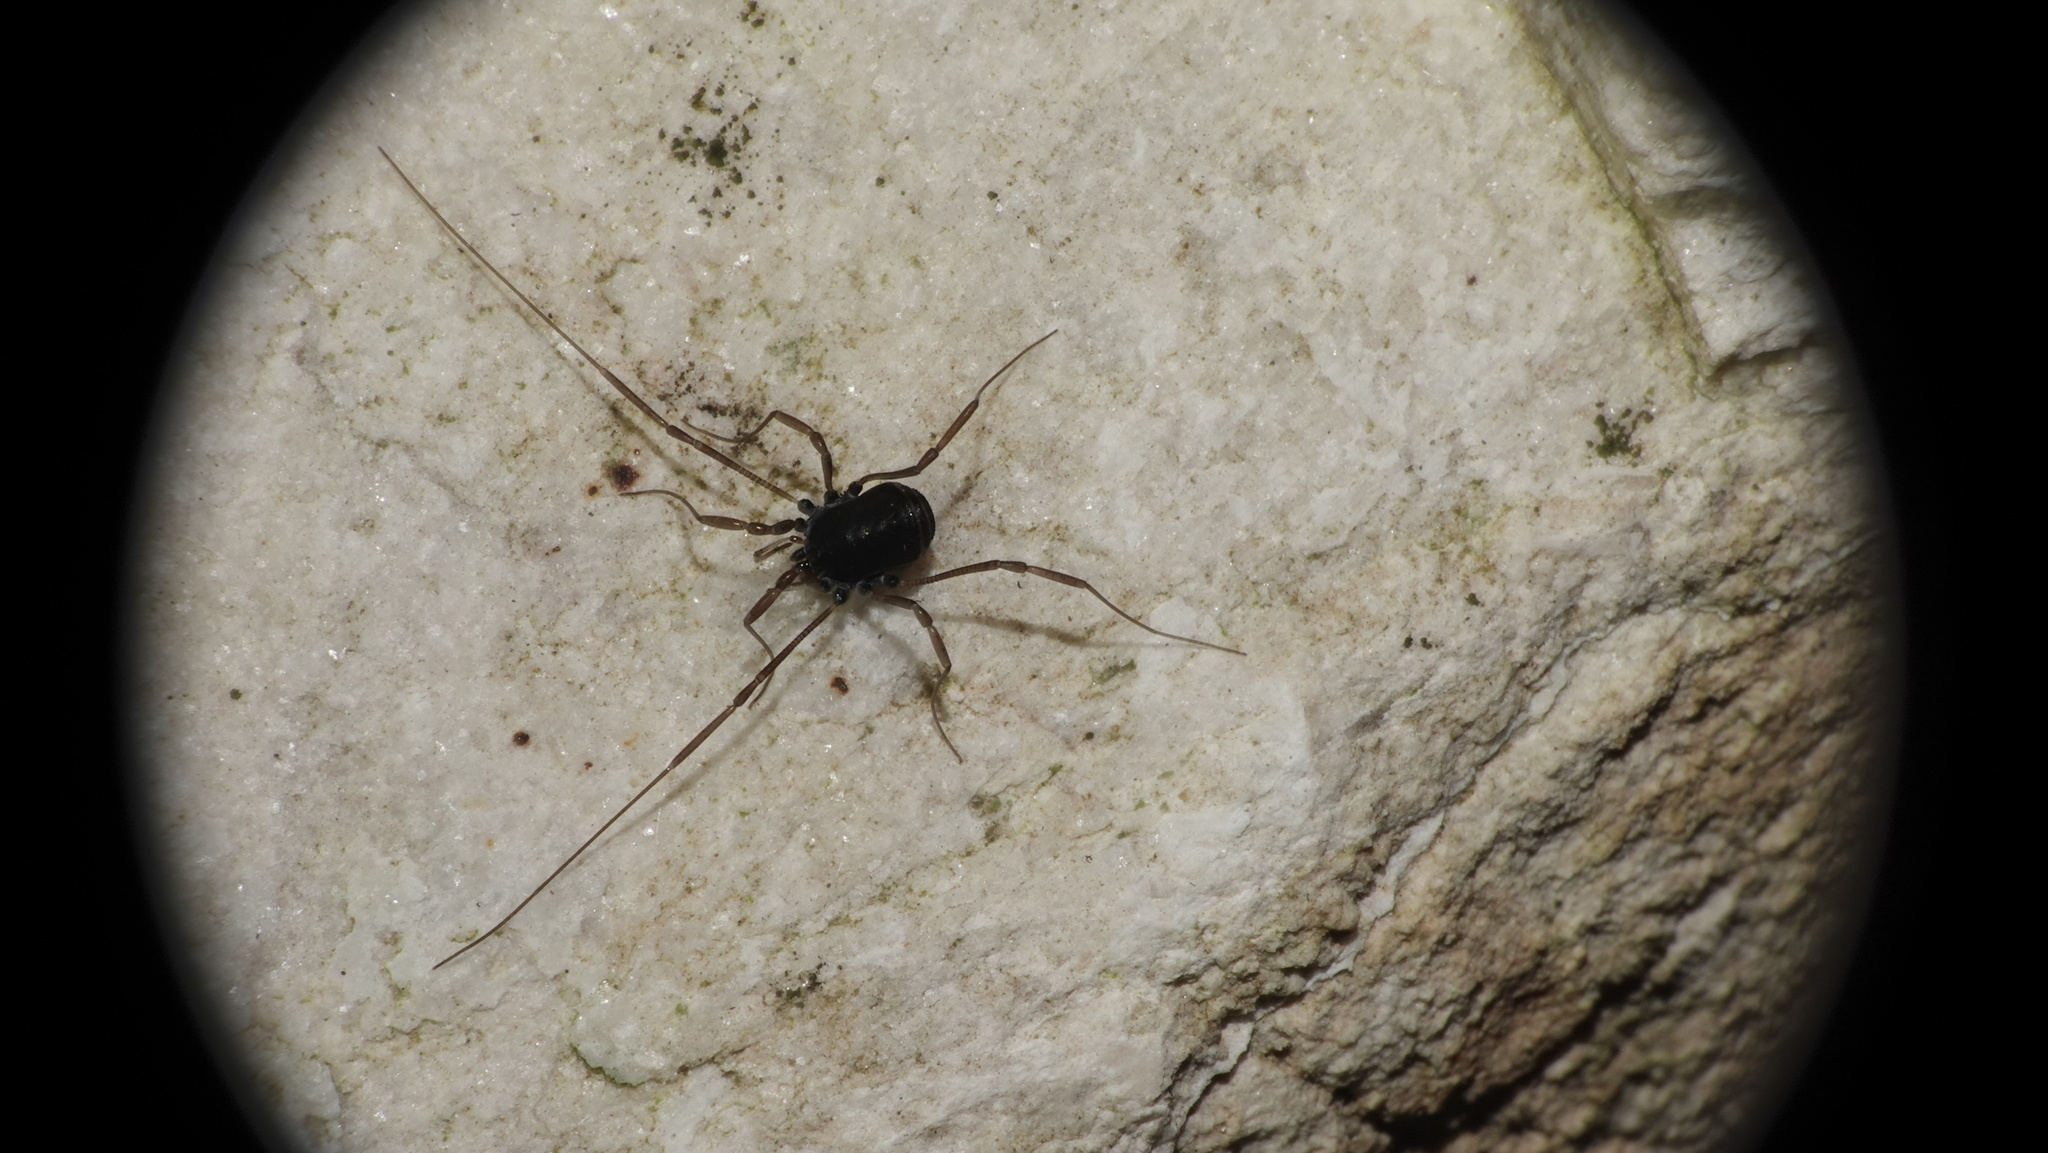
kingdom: Animalia
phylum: Arthropoda
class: Arachnida
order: Opiliones
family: Nemastomatidae
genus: Histricostoma
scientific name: Histricostoma dentipalpe
